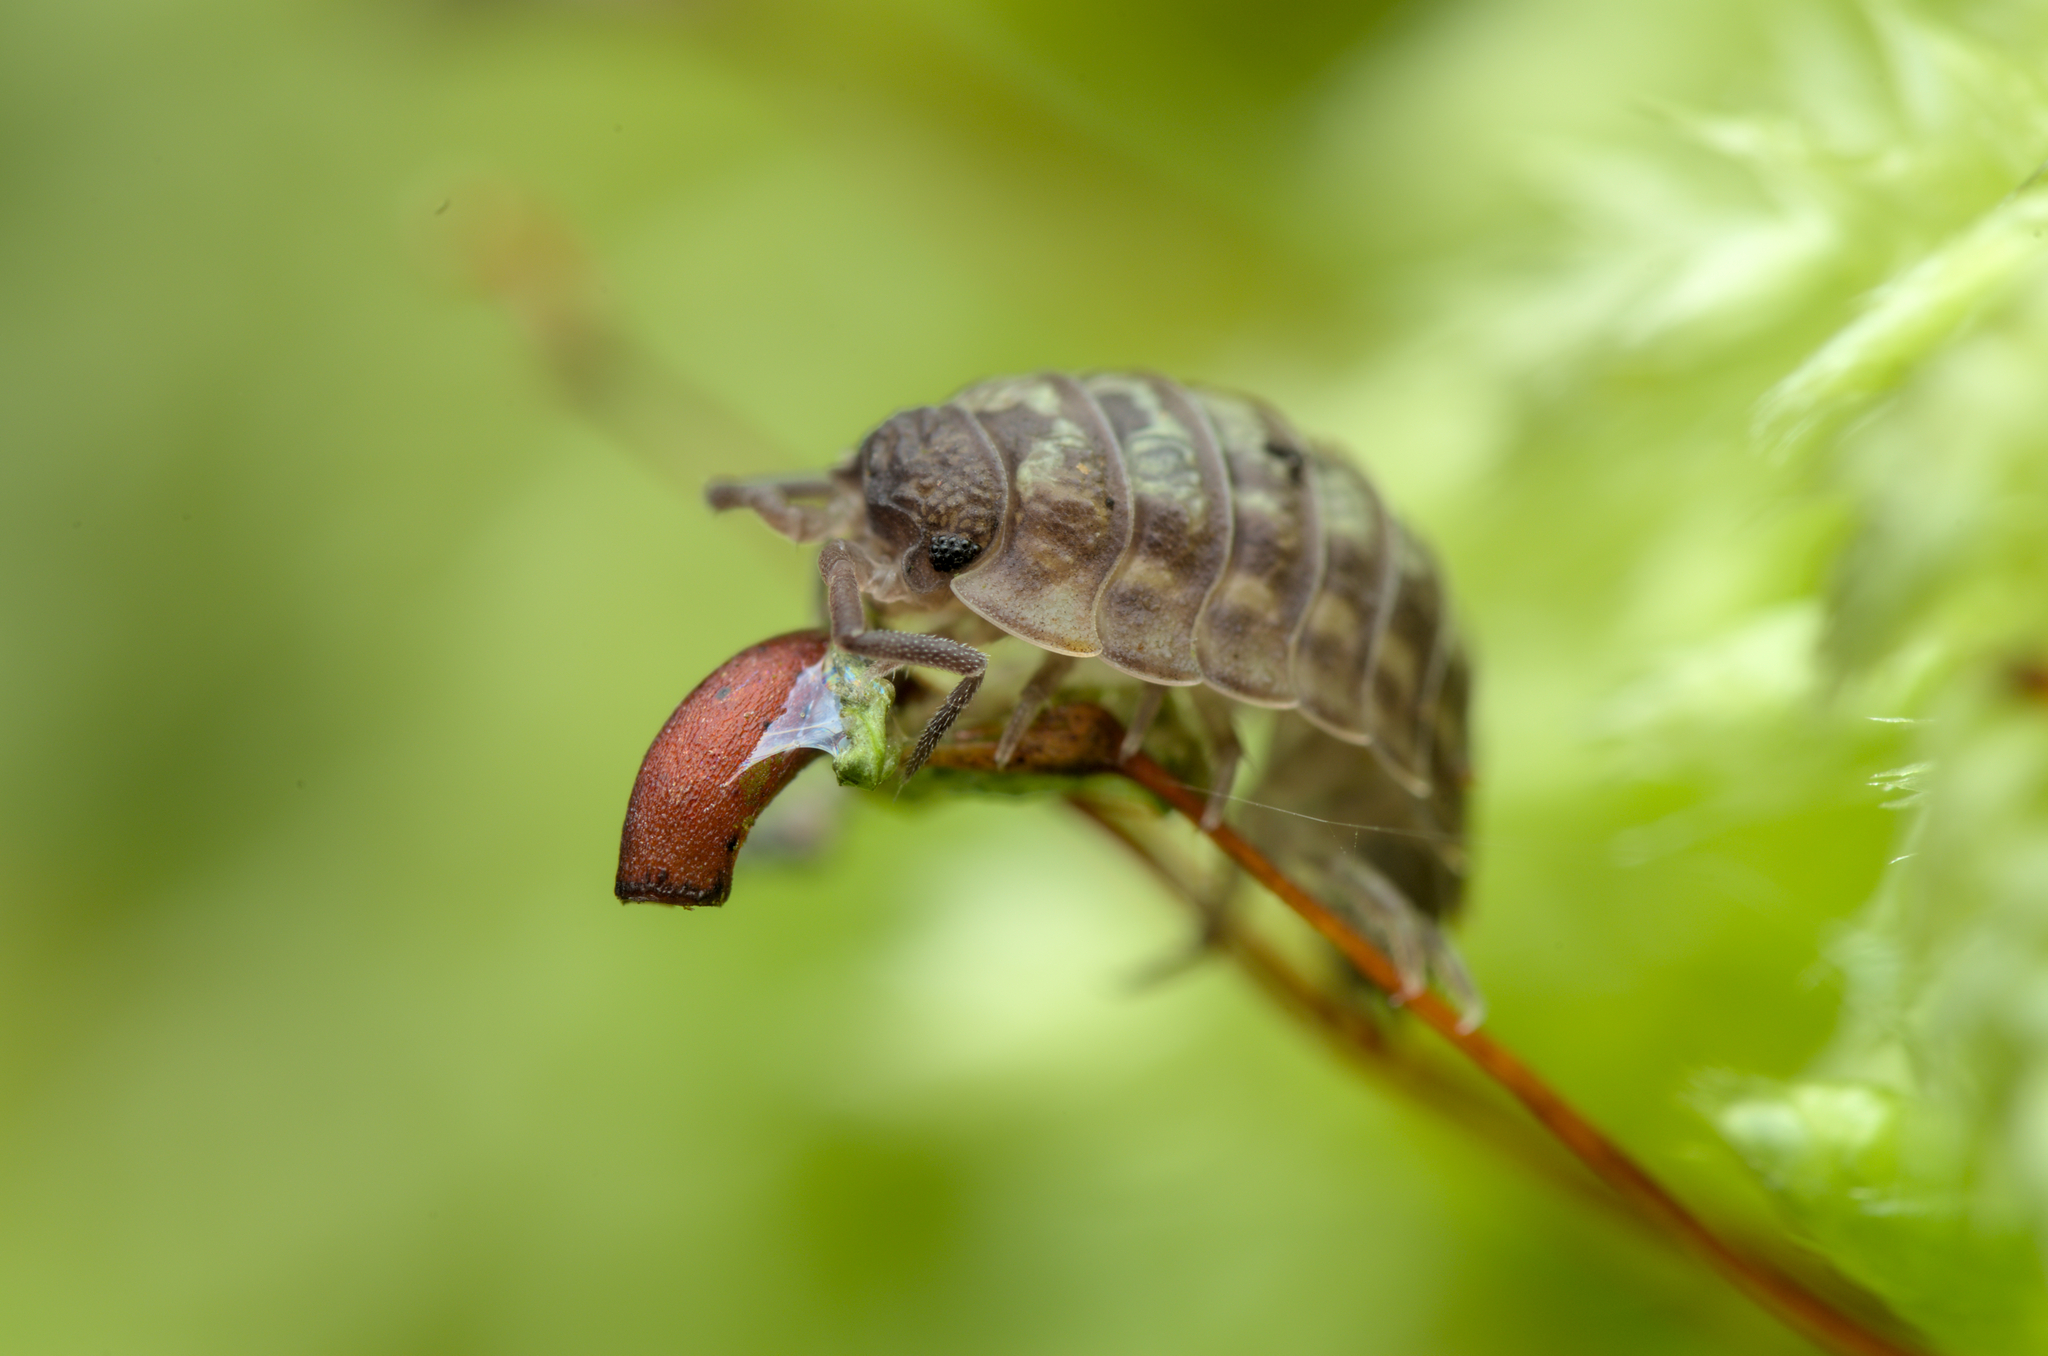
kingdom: Animalia
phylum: Arthropoda
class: Malacostraca
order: Isopoda
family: Oniscidae
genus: Oniscus
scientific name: Oniscus asellus
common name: Common shiny woodlouse
